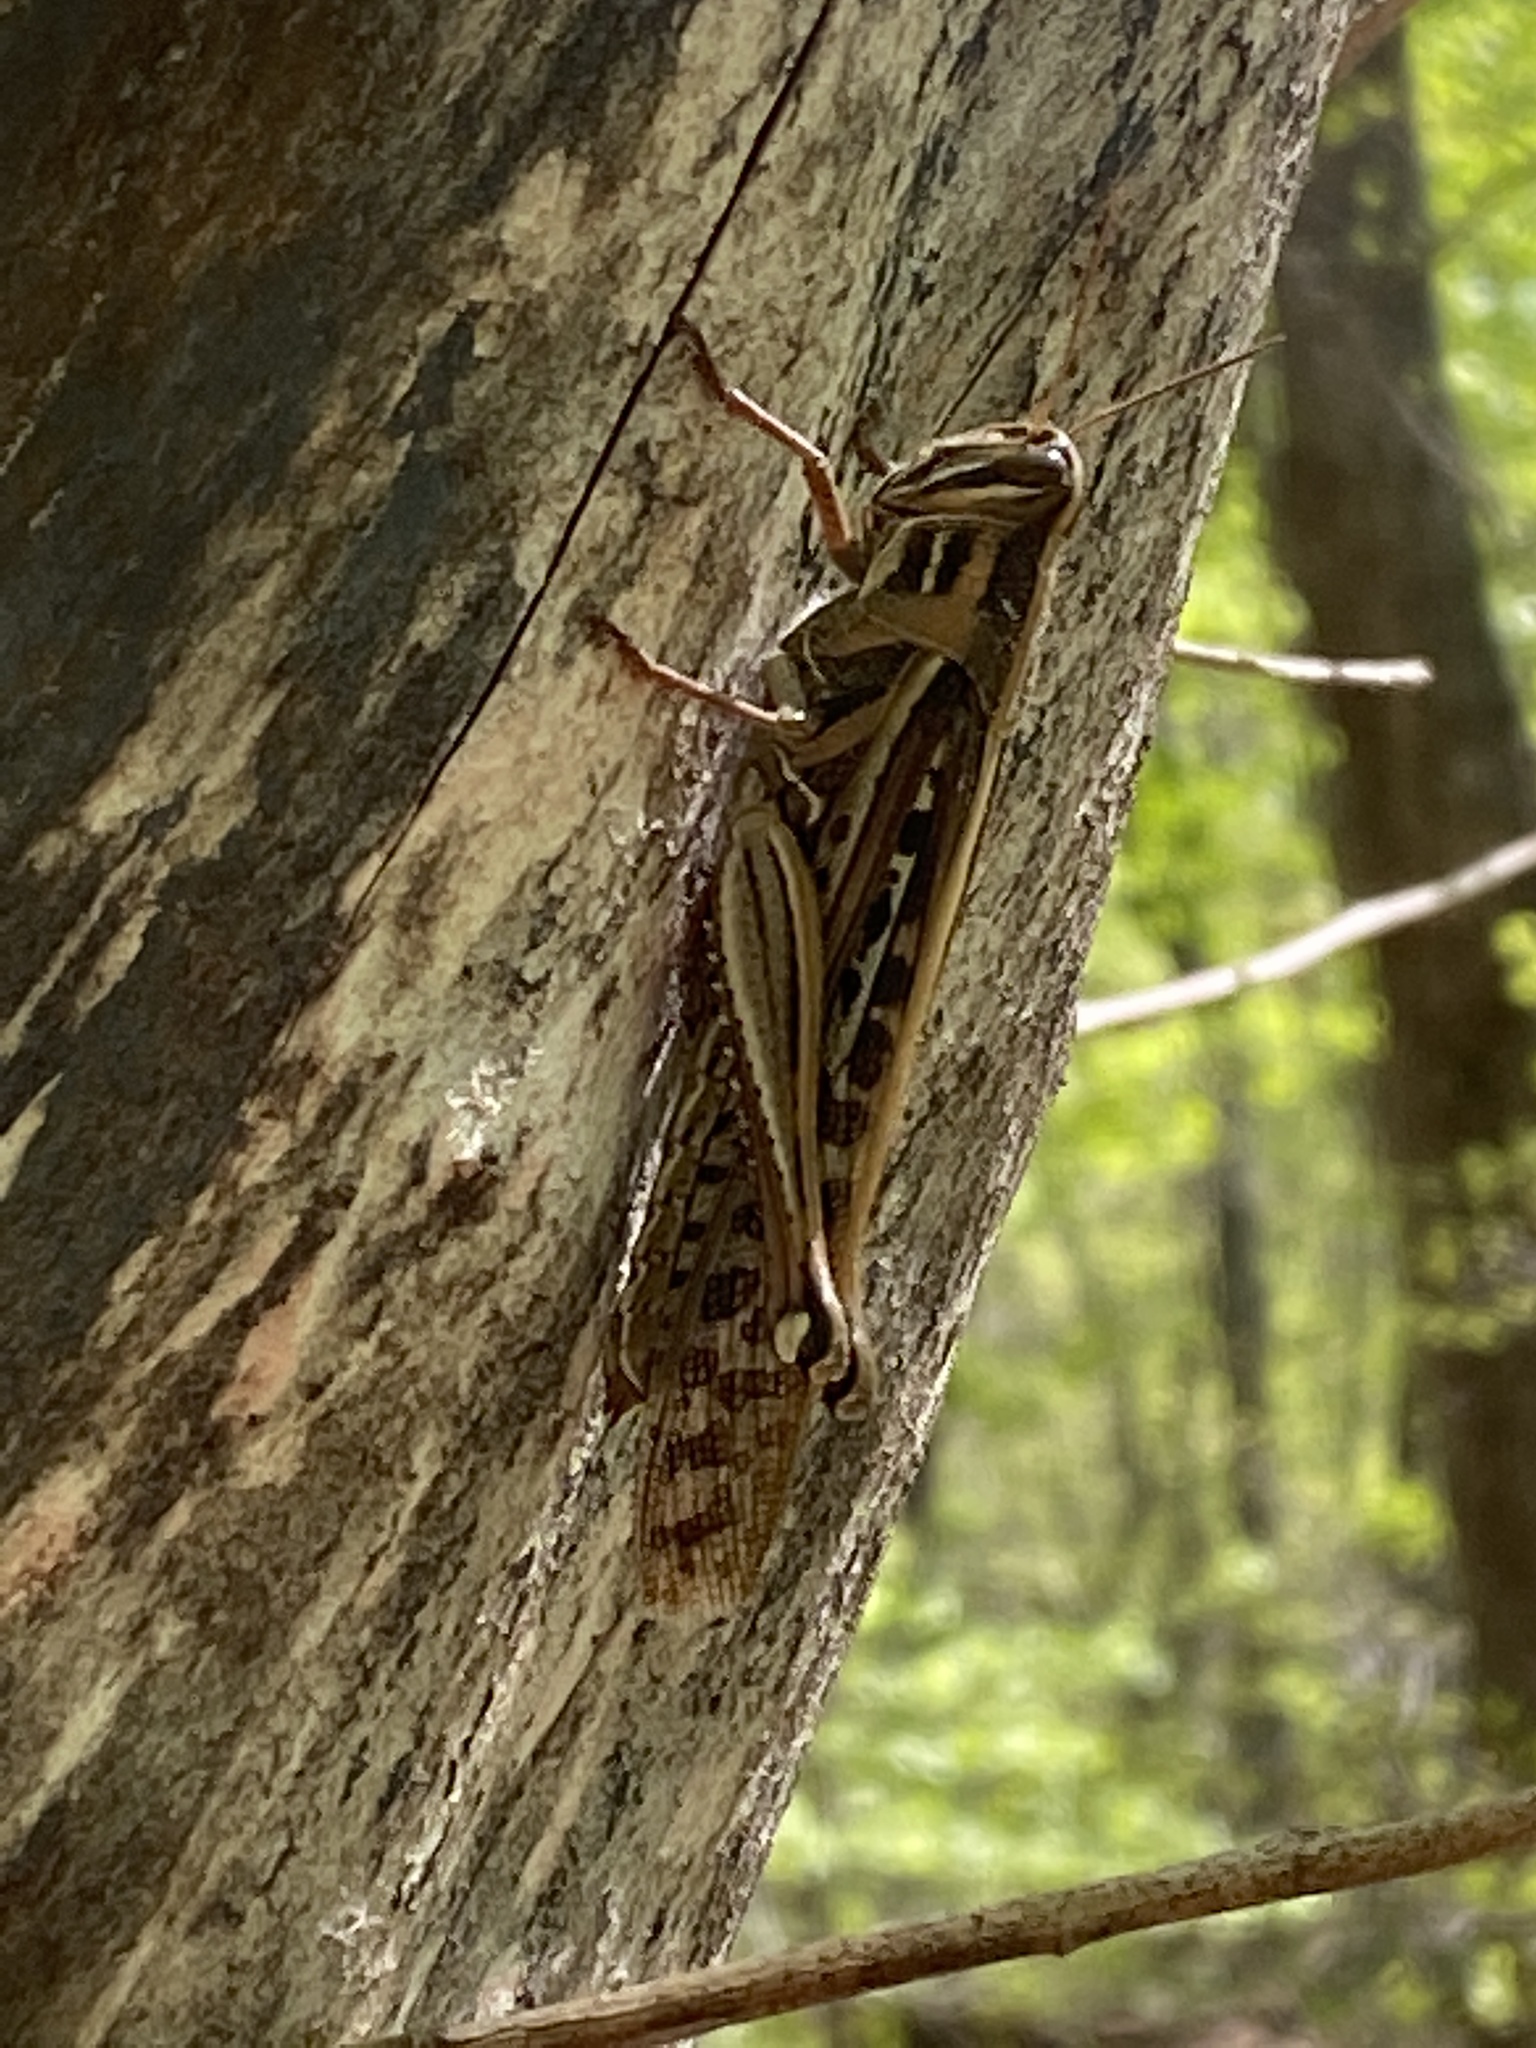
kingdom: Animalia
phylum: Arthropoda
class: Insecta
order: Orthoptera
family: Acrididae
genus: Schistocerca
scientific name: Schistocerca americana
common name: American bird locust
